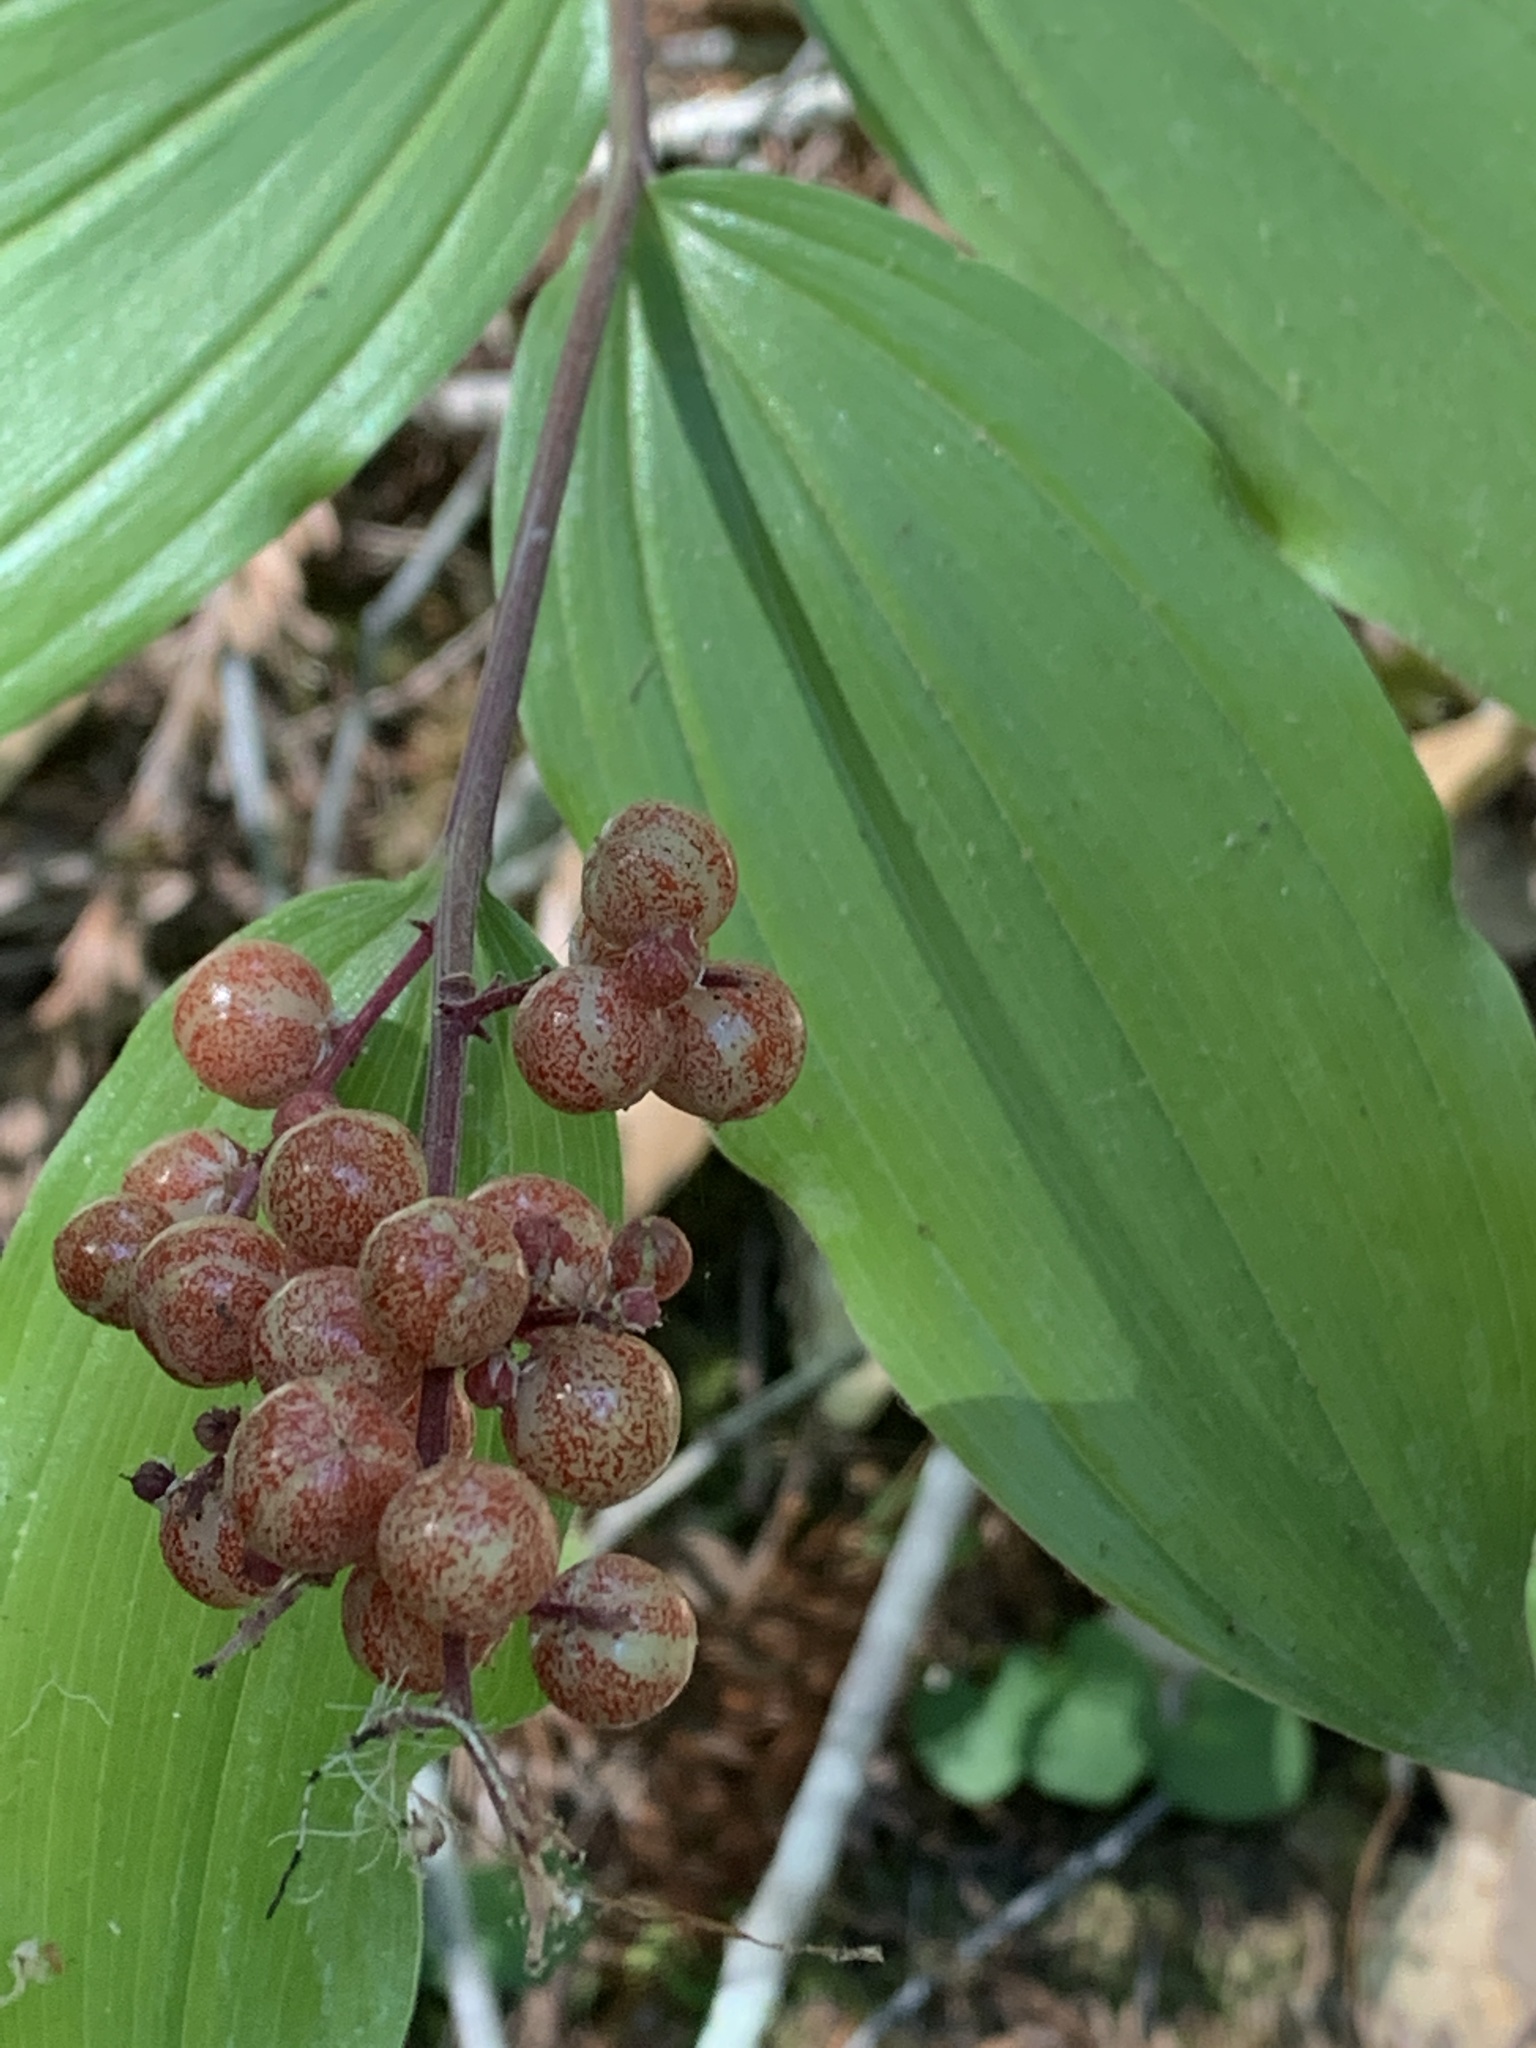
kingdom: Plantae
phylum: Tracheophyta
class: Liliopsida
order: Asparagales
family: Asparagaceae
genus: Maianthemum
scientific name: Maianthemum racemosum
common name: False spikenard
